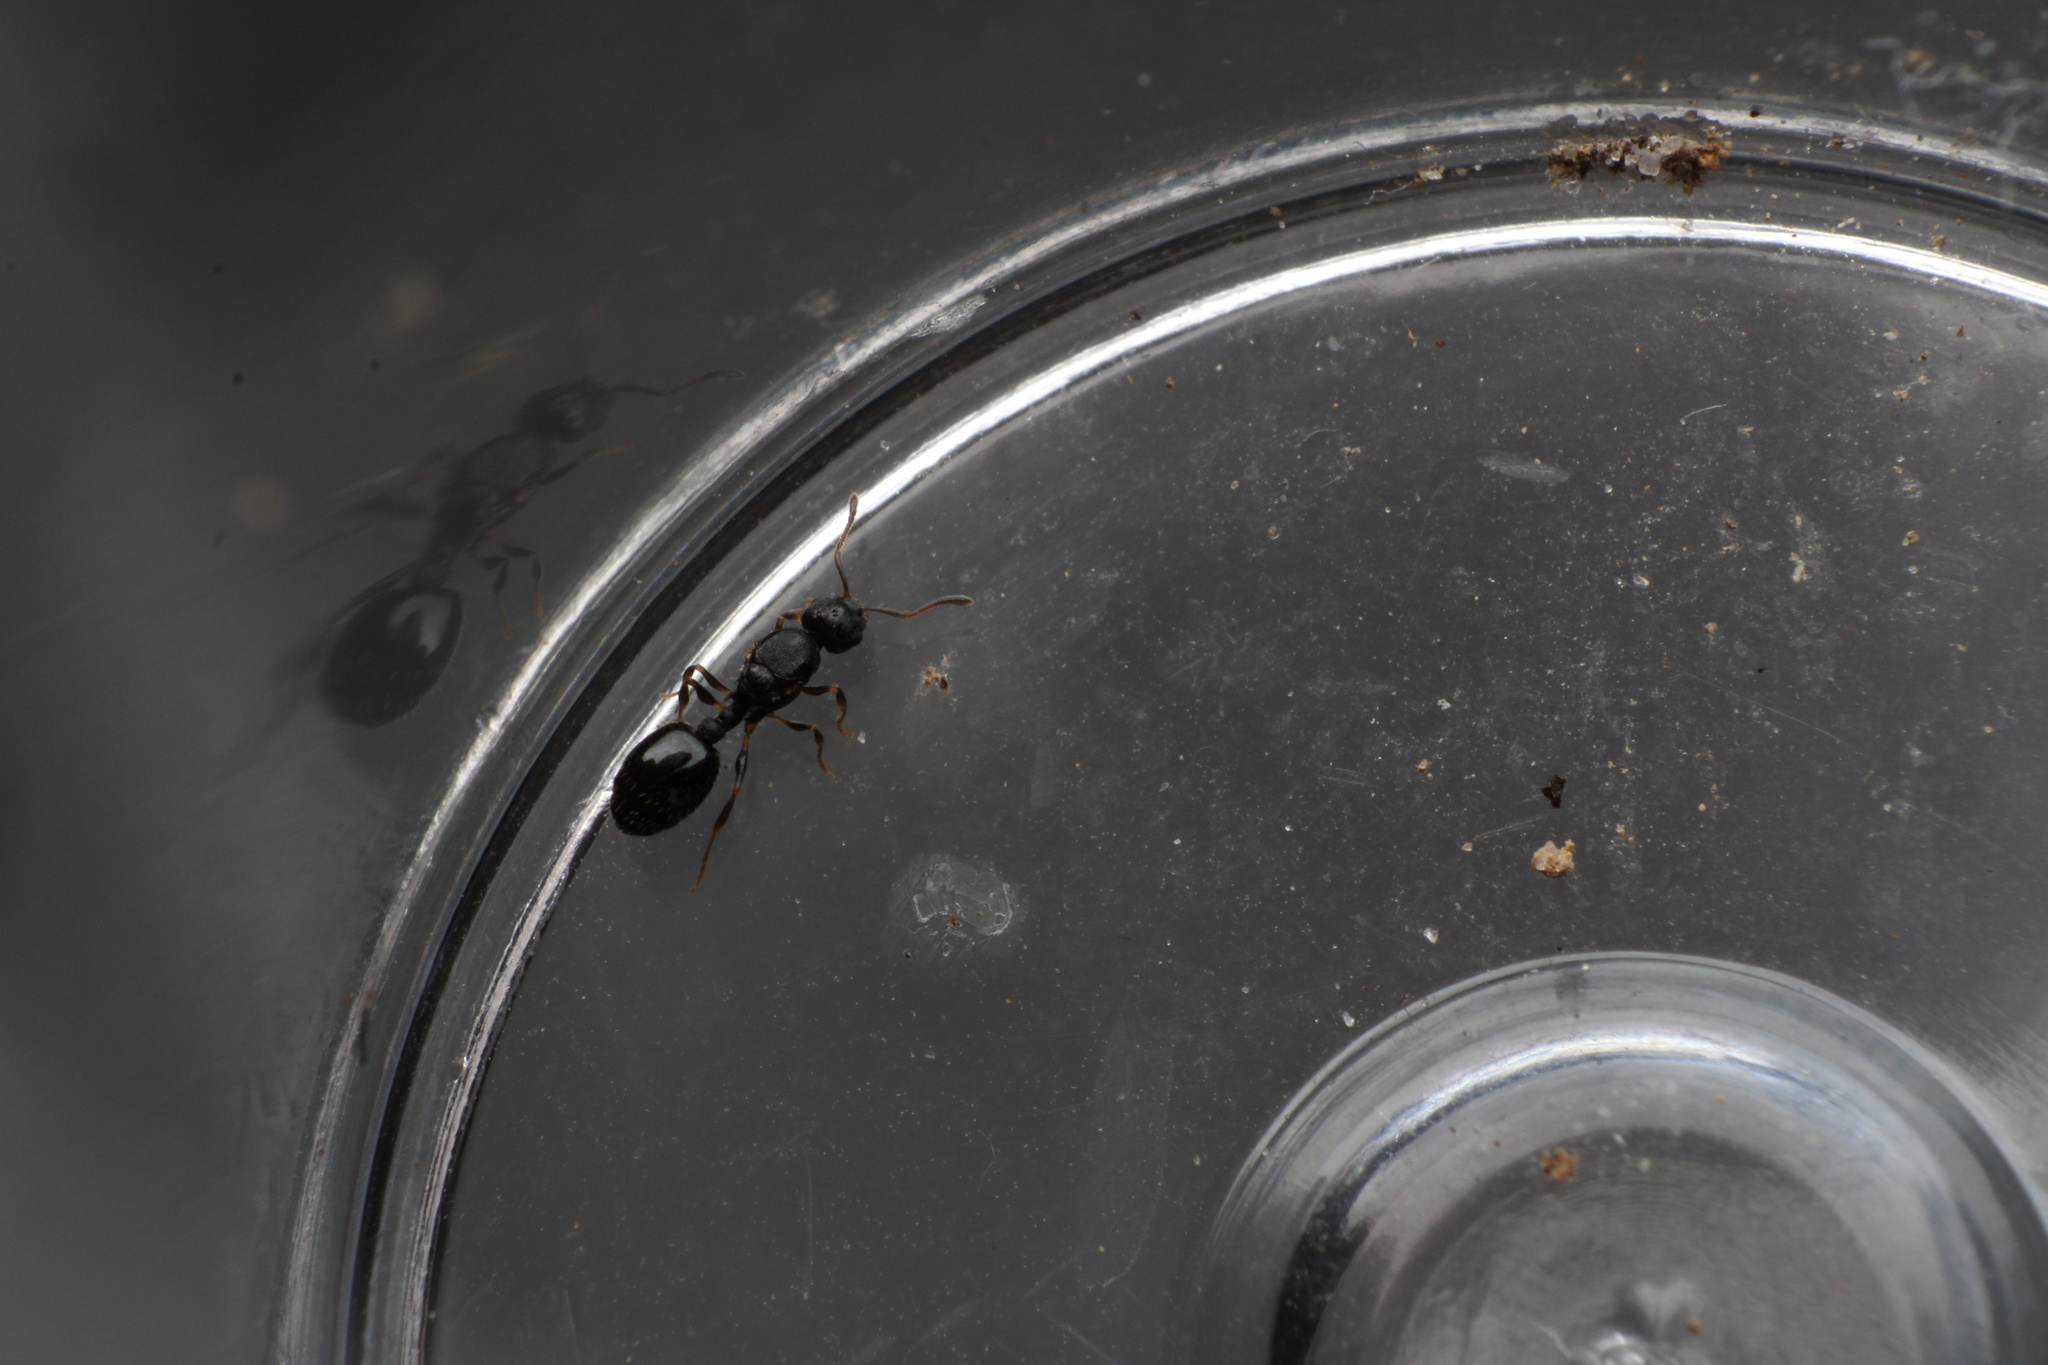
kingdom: Animalia
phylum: Arthropoda
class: Insecta
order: Hymenoptera
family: Formicidae
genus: Temnothorax
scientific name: Temnothorax longispinosus
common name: Long-spined acorn ant
